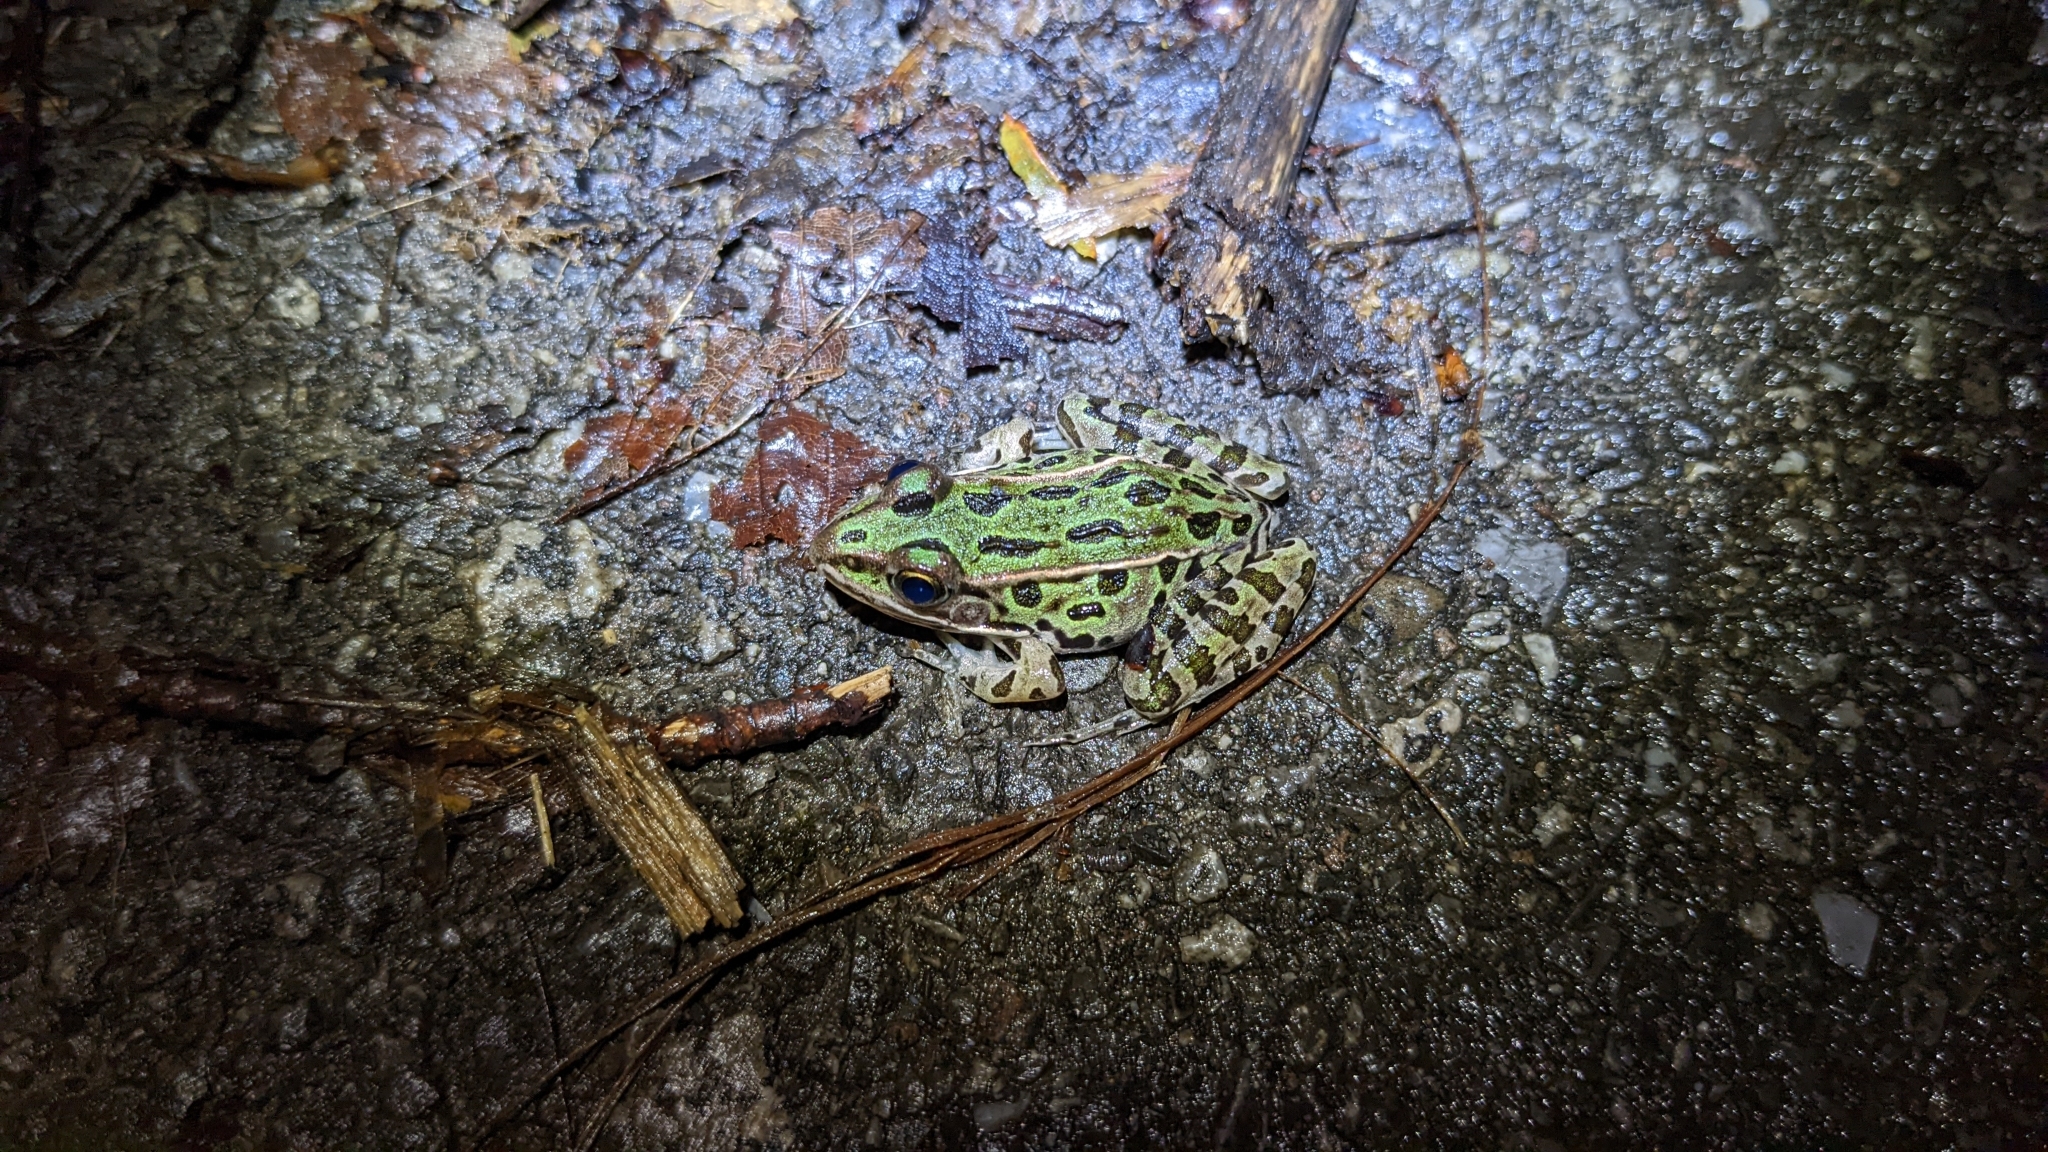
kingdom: Animalia
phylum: Chordata
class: Amphibia
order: Anura
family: Ranidae
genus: Lithobates
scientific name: Lithobates pipiens
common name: Northern leopard frog
